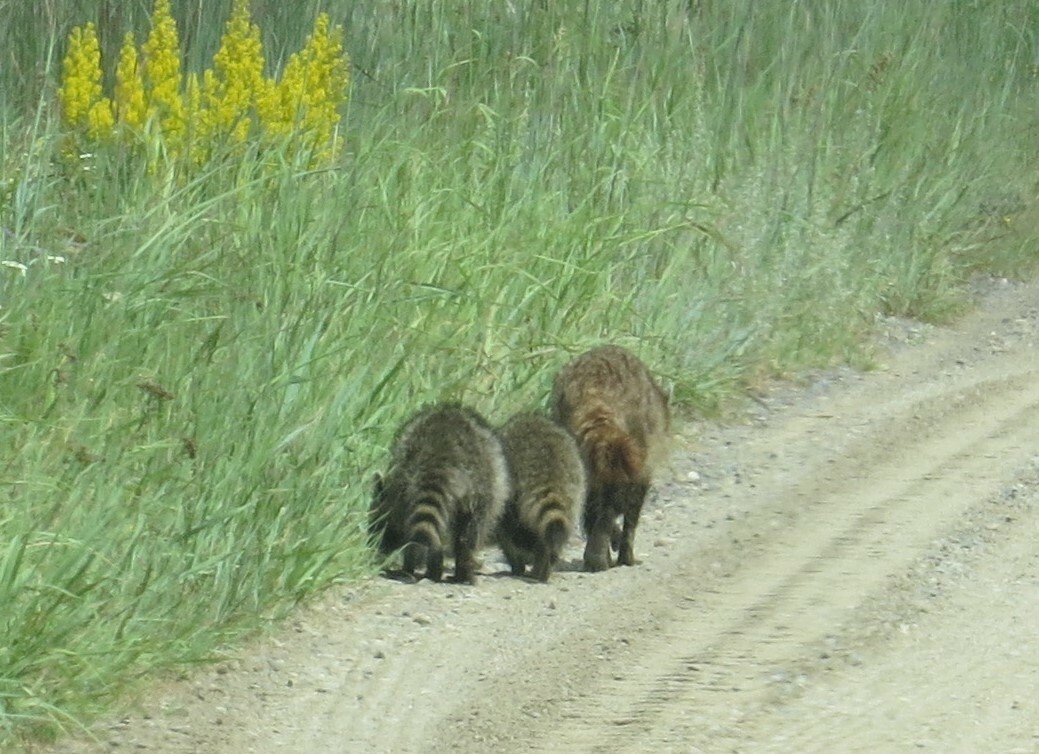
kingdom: Animalia
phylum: Chordata
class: Mammalia
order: Carnivora
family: Procyonidae
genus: Procyon
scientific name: Procyon lotor
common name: Raccoon
